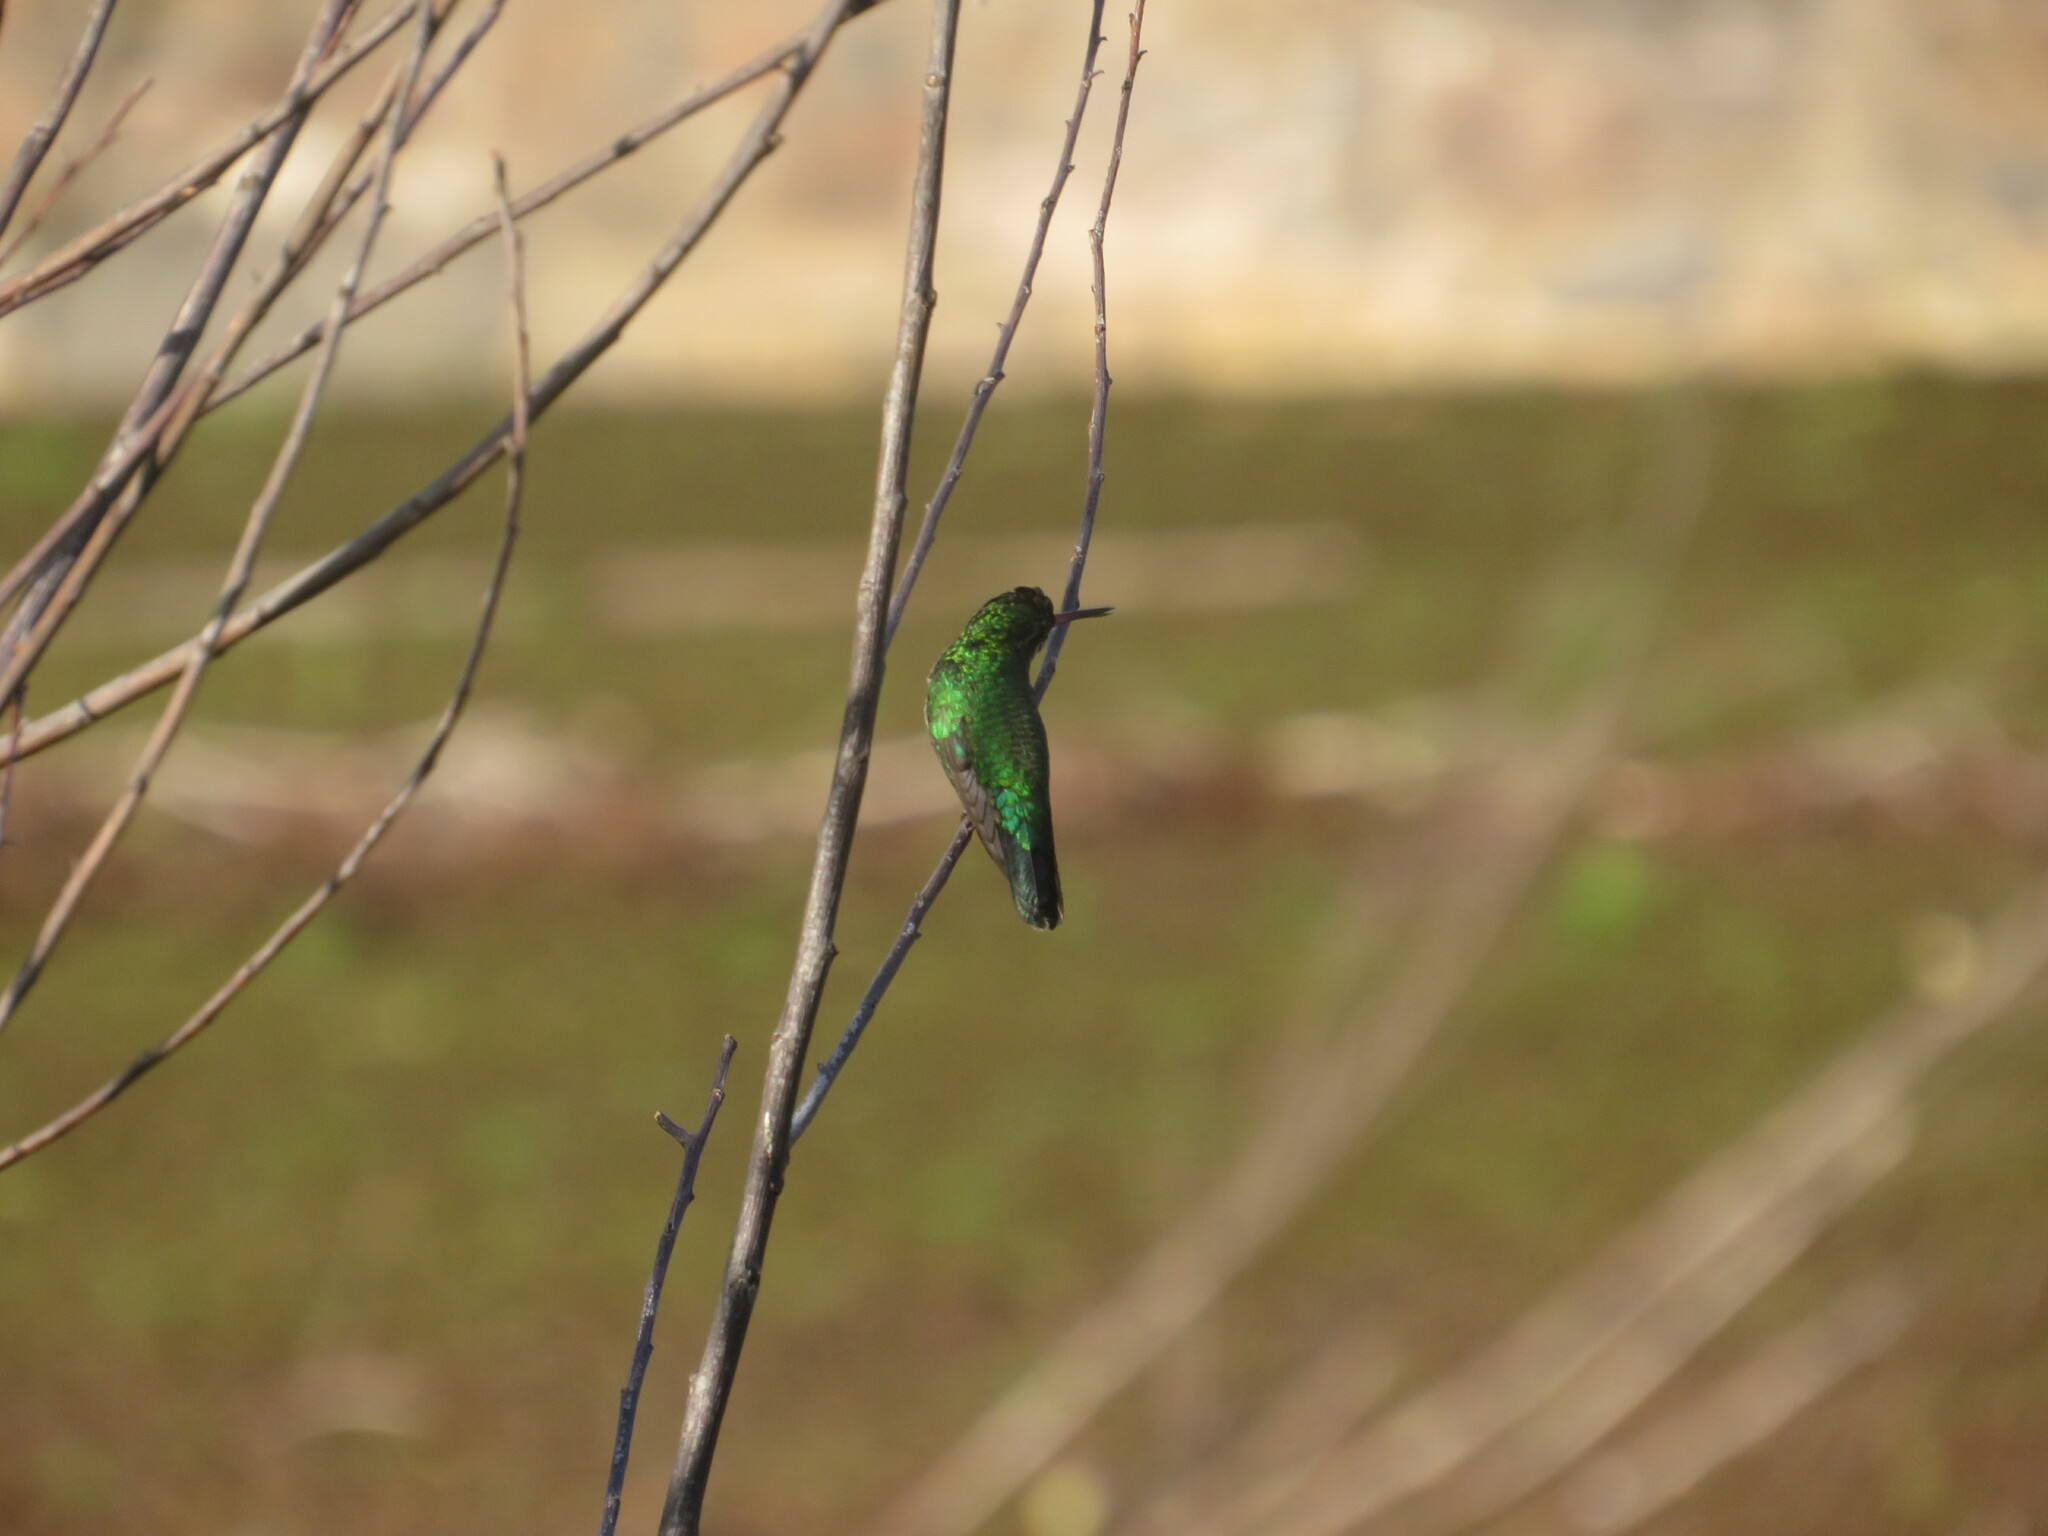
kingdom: Animalia
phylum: Chordata
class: Aves
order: Apodiformes
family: Trochilidae
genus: Chlorostilbon
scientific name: Chlorostilbon lucidus
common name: Glittering-bellied emerald
